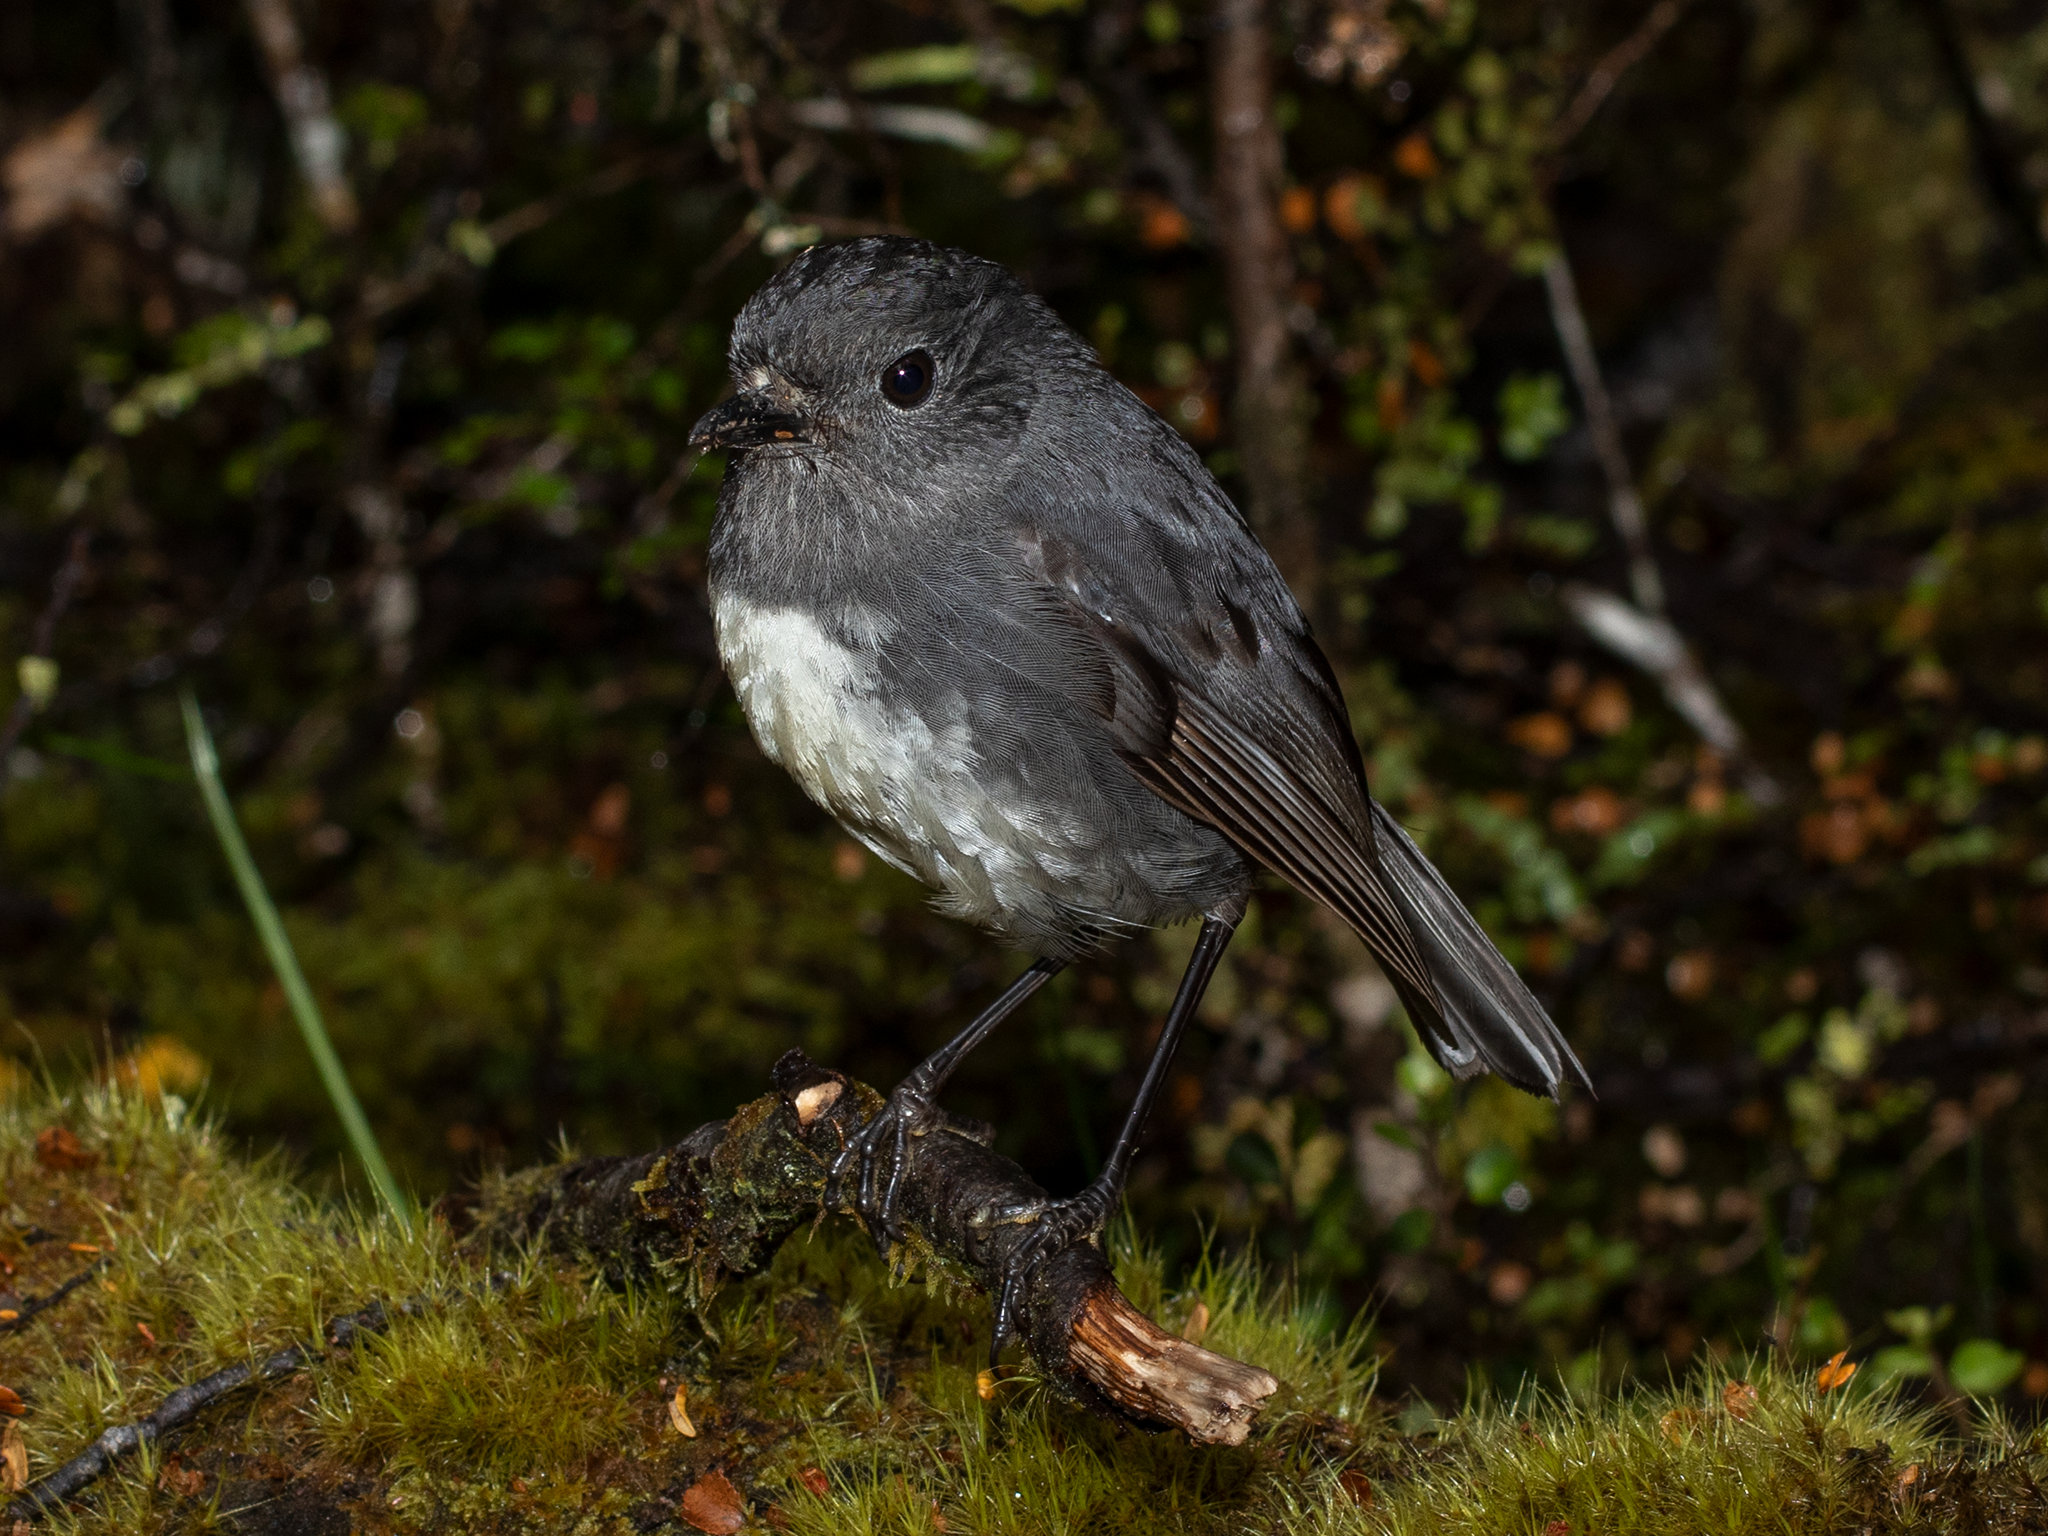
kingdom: Animalia
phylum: Chordata
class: Aves
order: Passeriformes
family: Petroicidae
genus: Petroica
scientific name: Petroica australis
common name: New zealand robin
